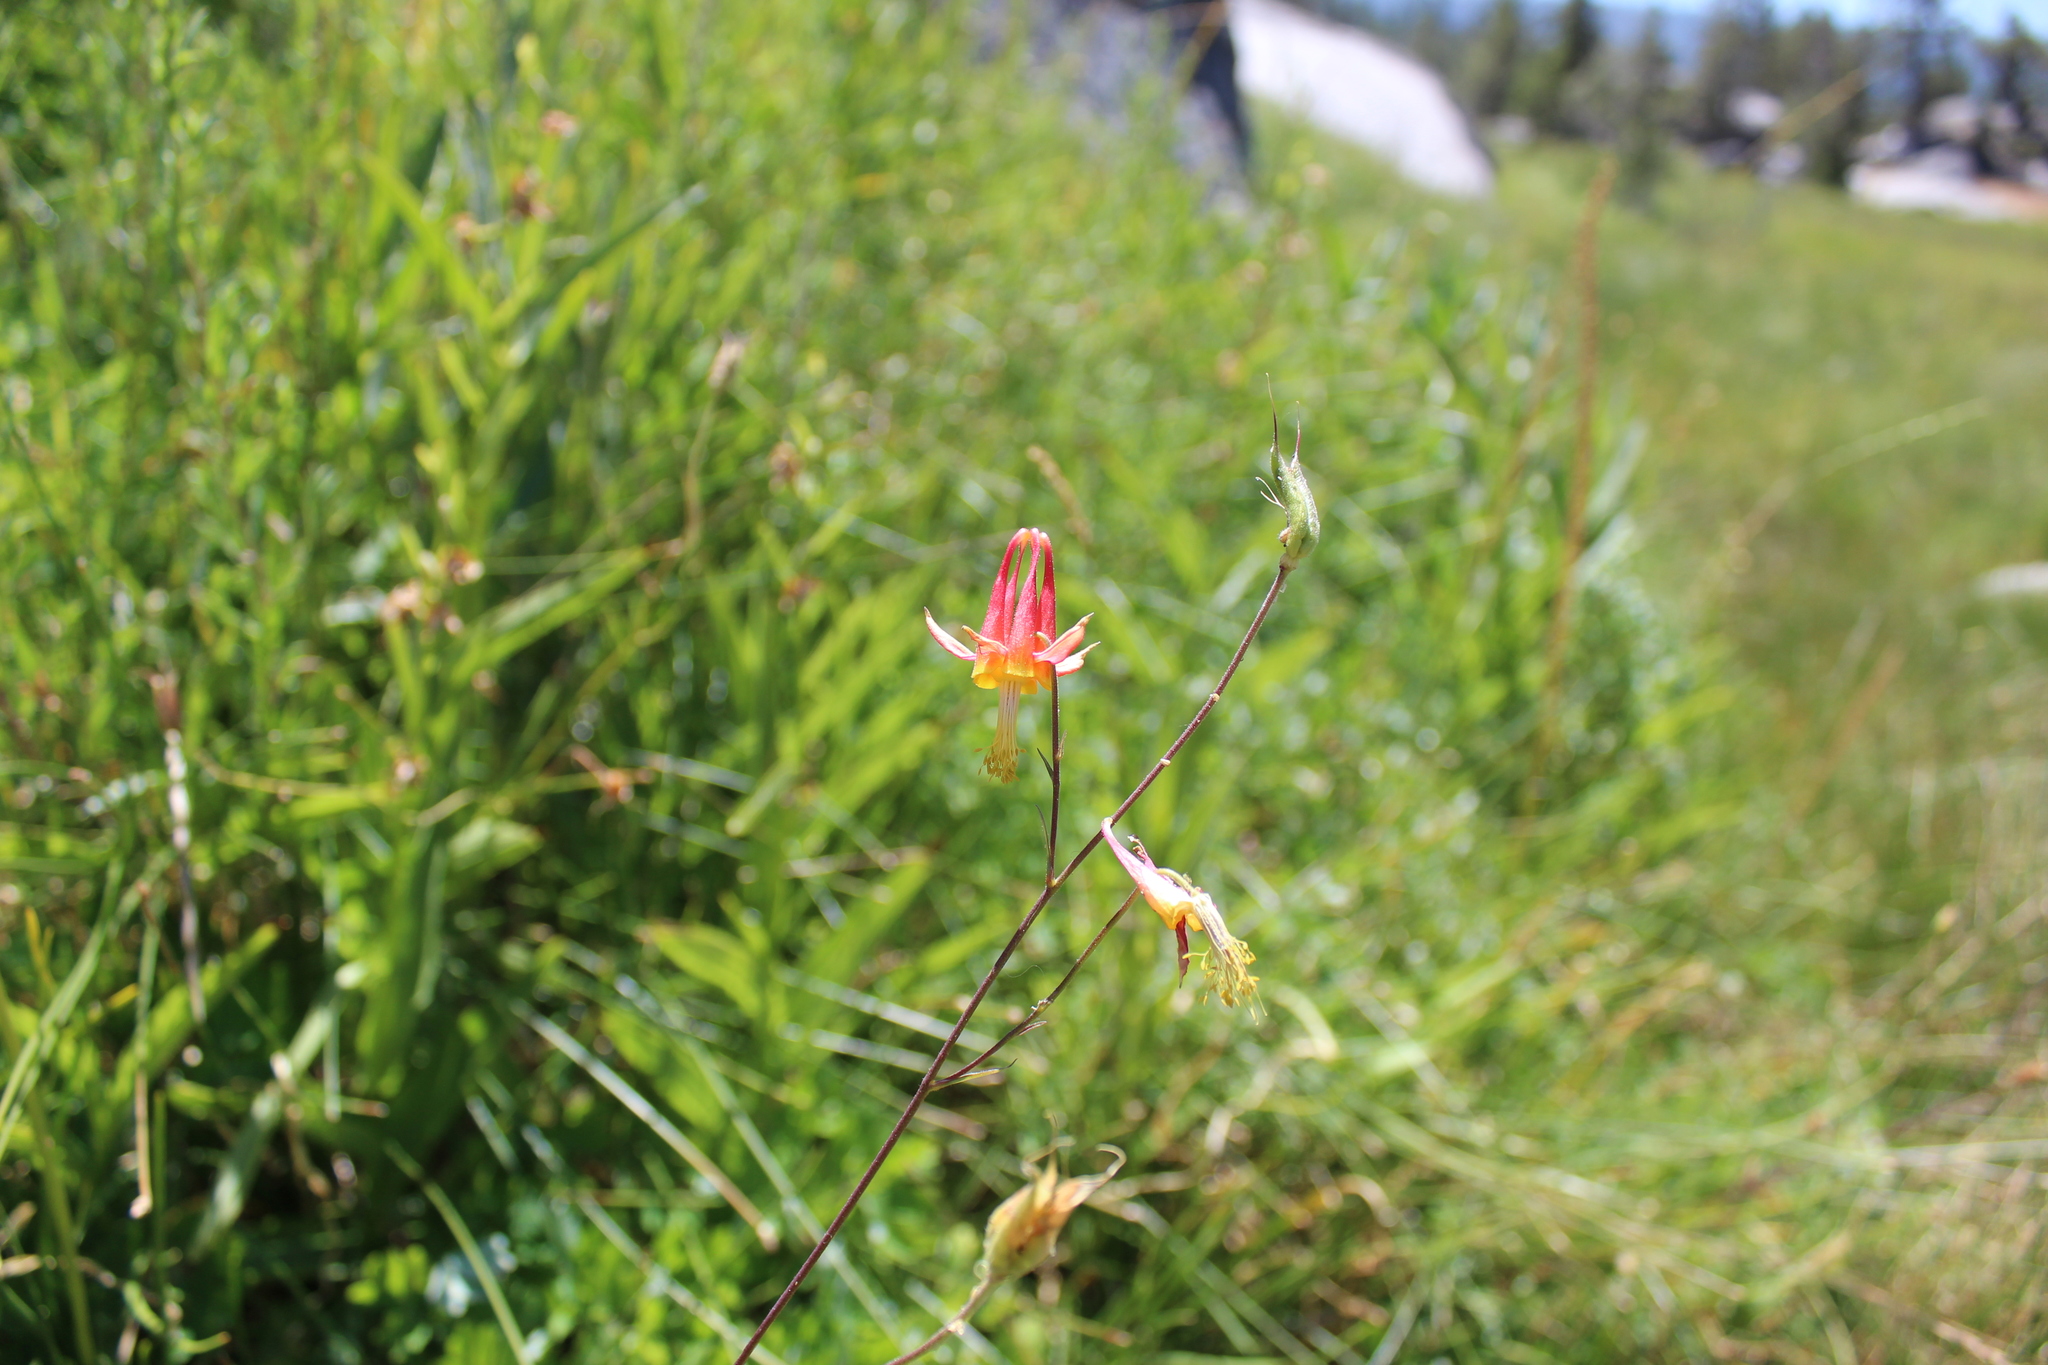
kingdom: Plantae
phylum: Tracheophyta
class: Magnoliopsida
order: Ranunculales
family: Ranunculaceae
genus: Aquilegia
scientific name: Aquilegia formosa
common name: Sitka columbine
